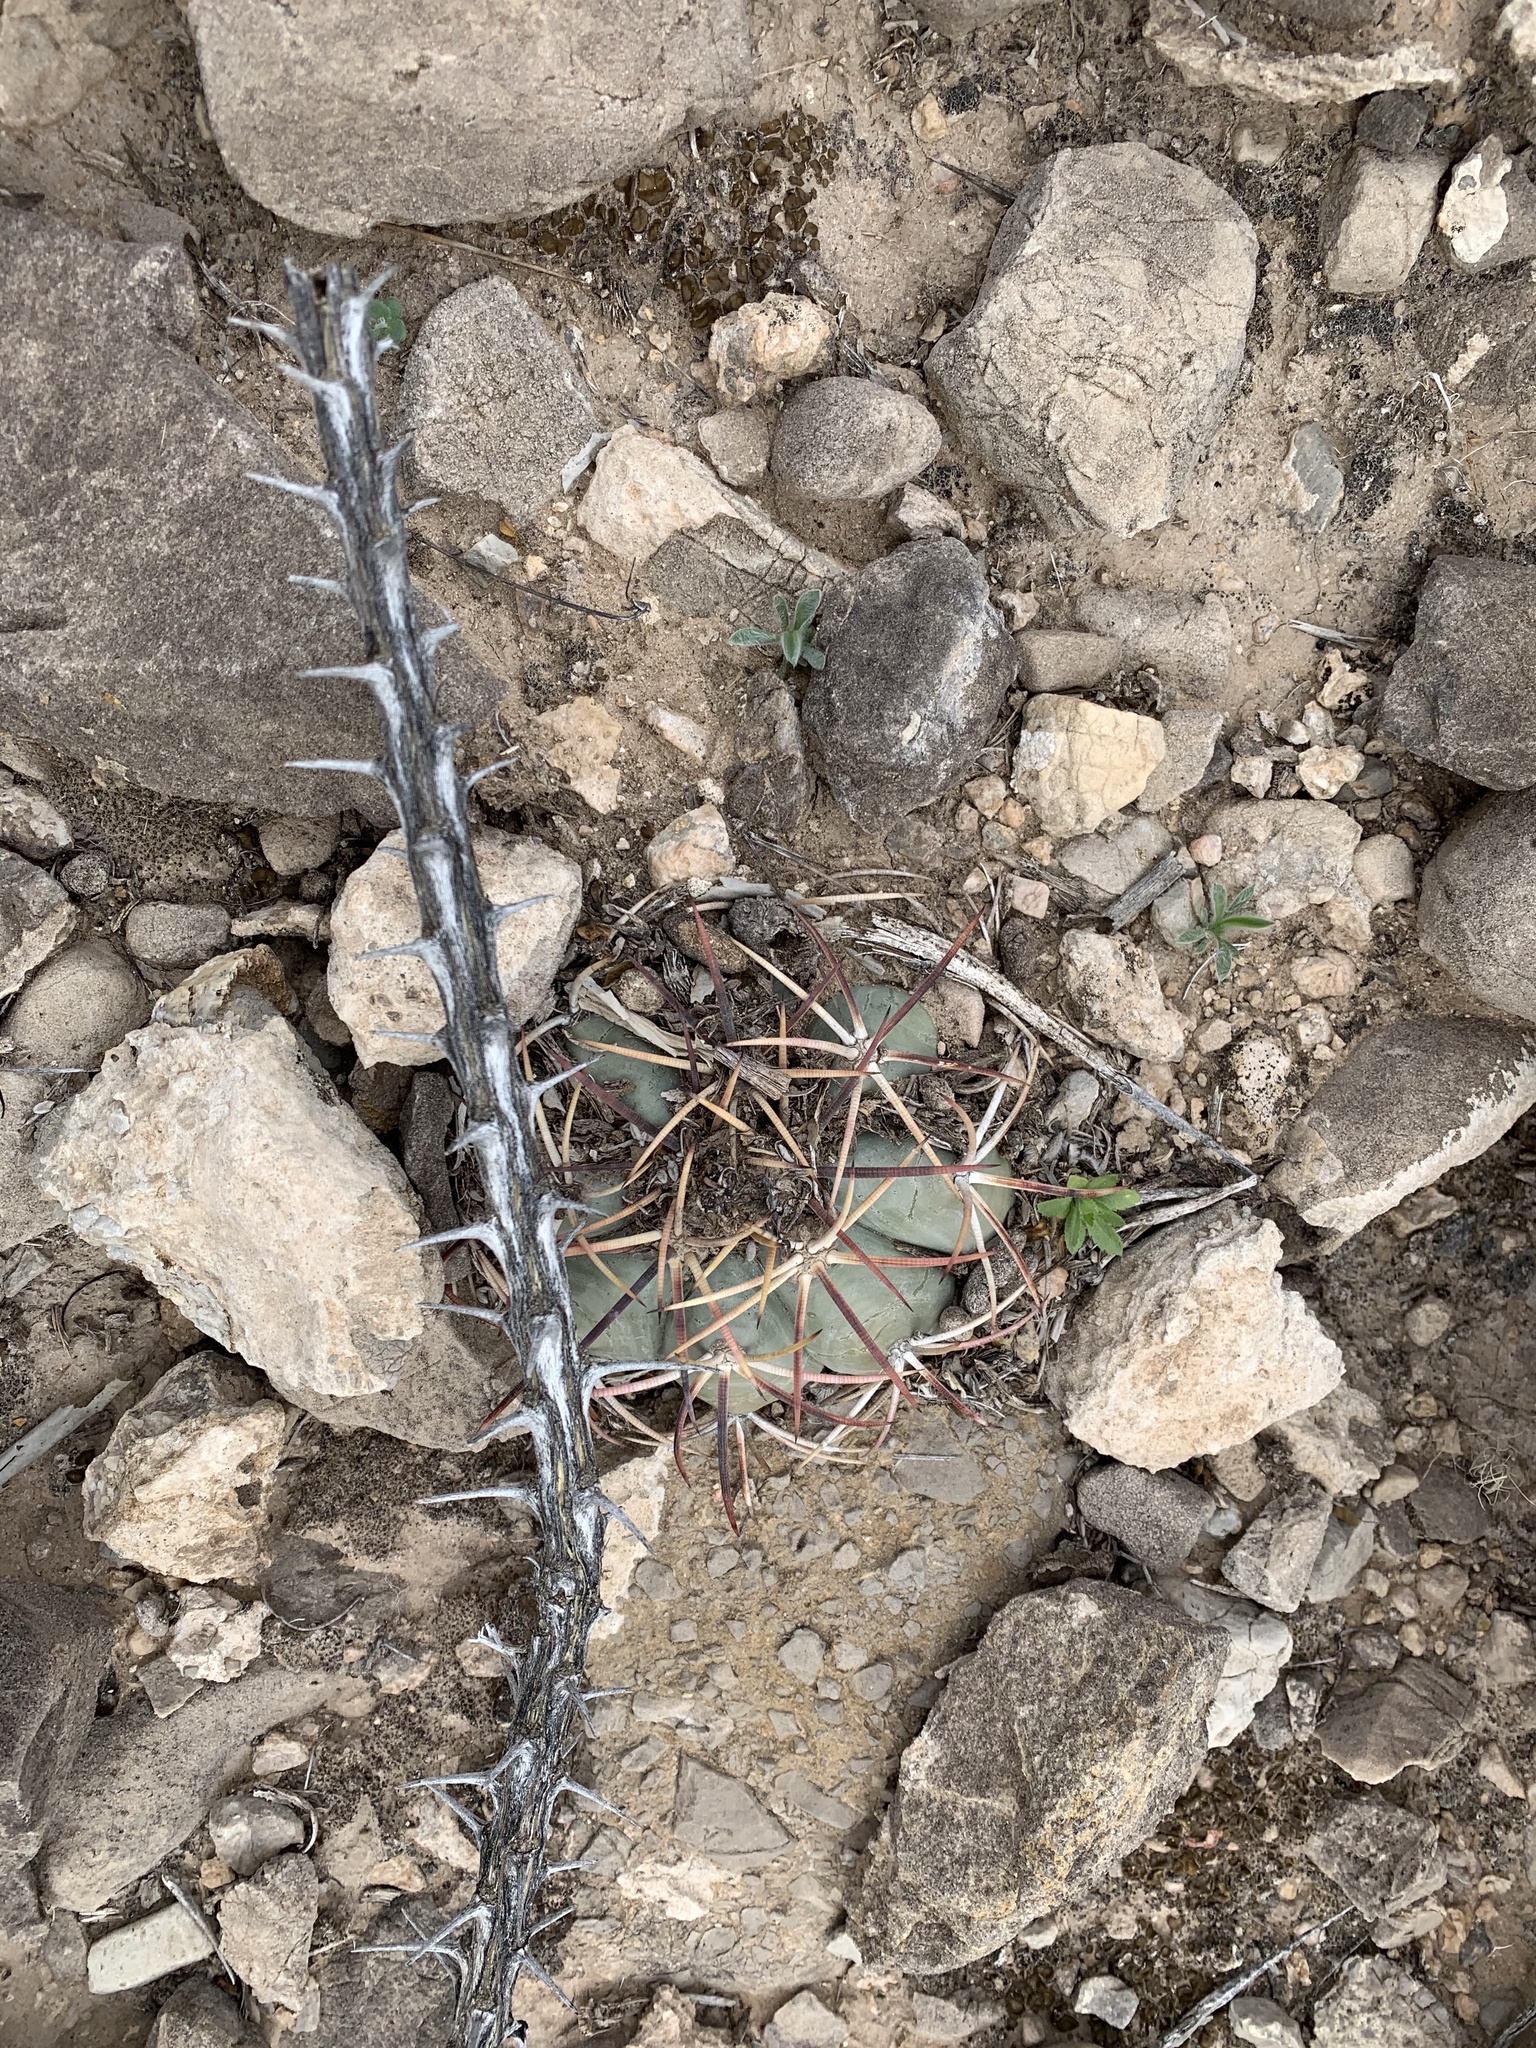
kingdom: Plantae
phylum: Tracheophyta
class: Magnoliopsida
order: Caryophyllales
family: Cactaceae
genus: Echinocactus
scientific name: Echinocactus horizonthalonius
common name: Devilshead
